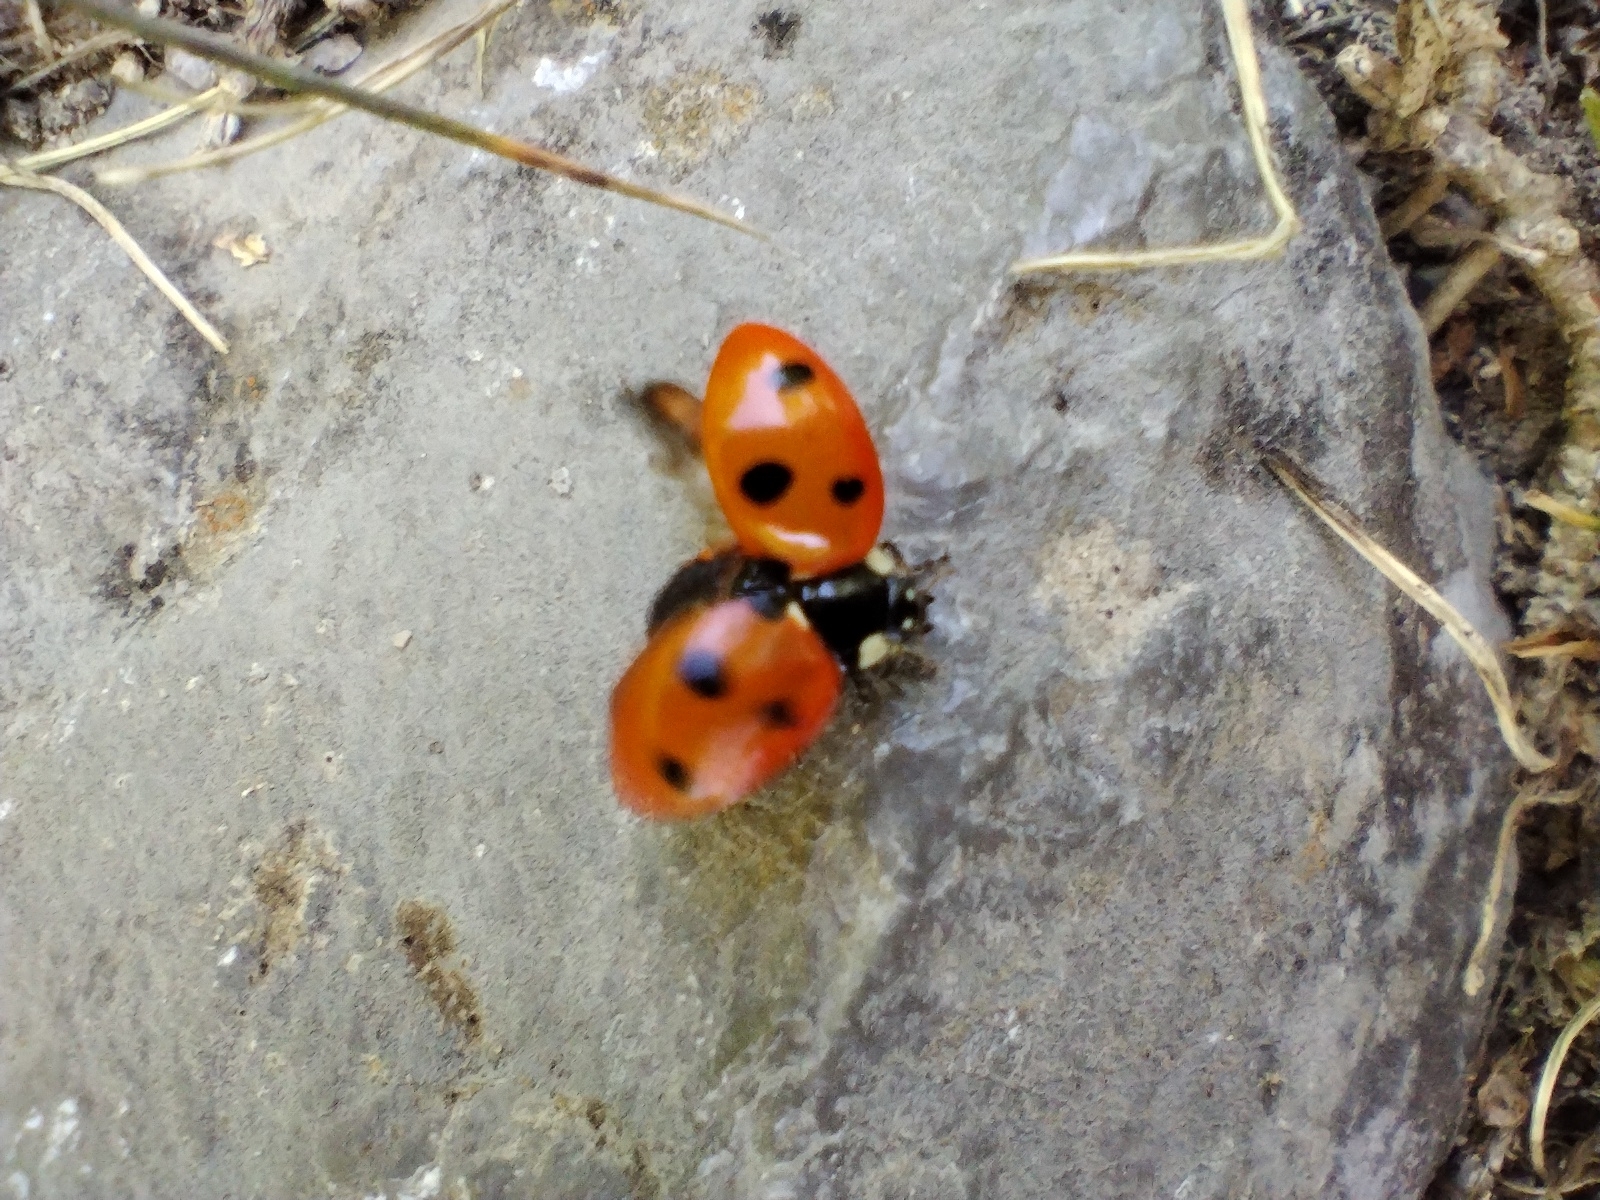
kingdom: Animalia
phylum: Arthropoda
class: Insecta
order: Coleoptera
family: Coccinellidae
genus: Coccinella
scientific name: Coccinella septempunctata
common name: Sevenspotted lady beetle
